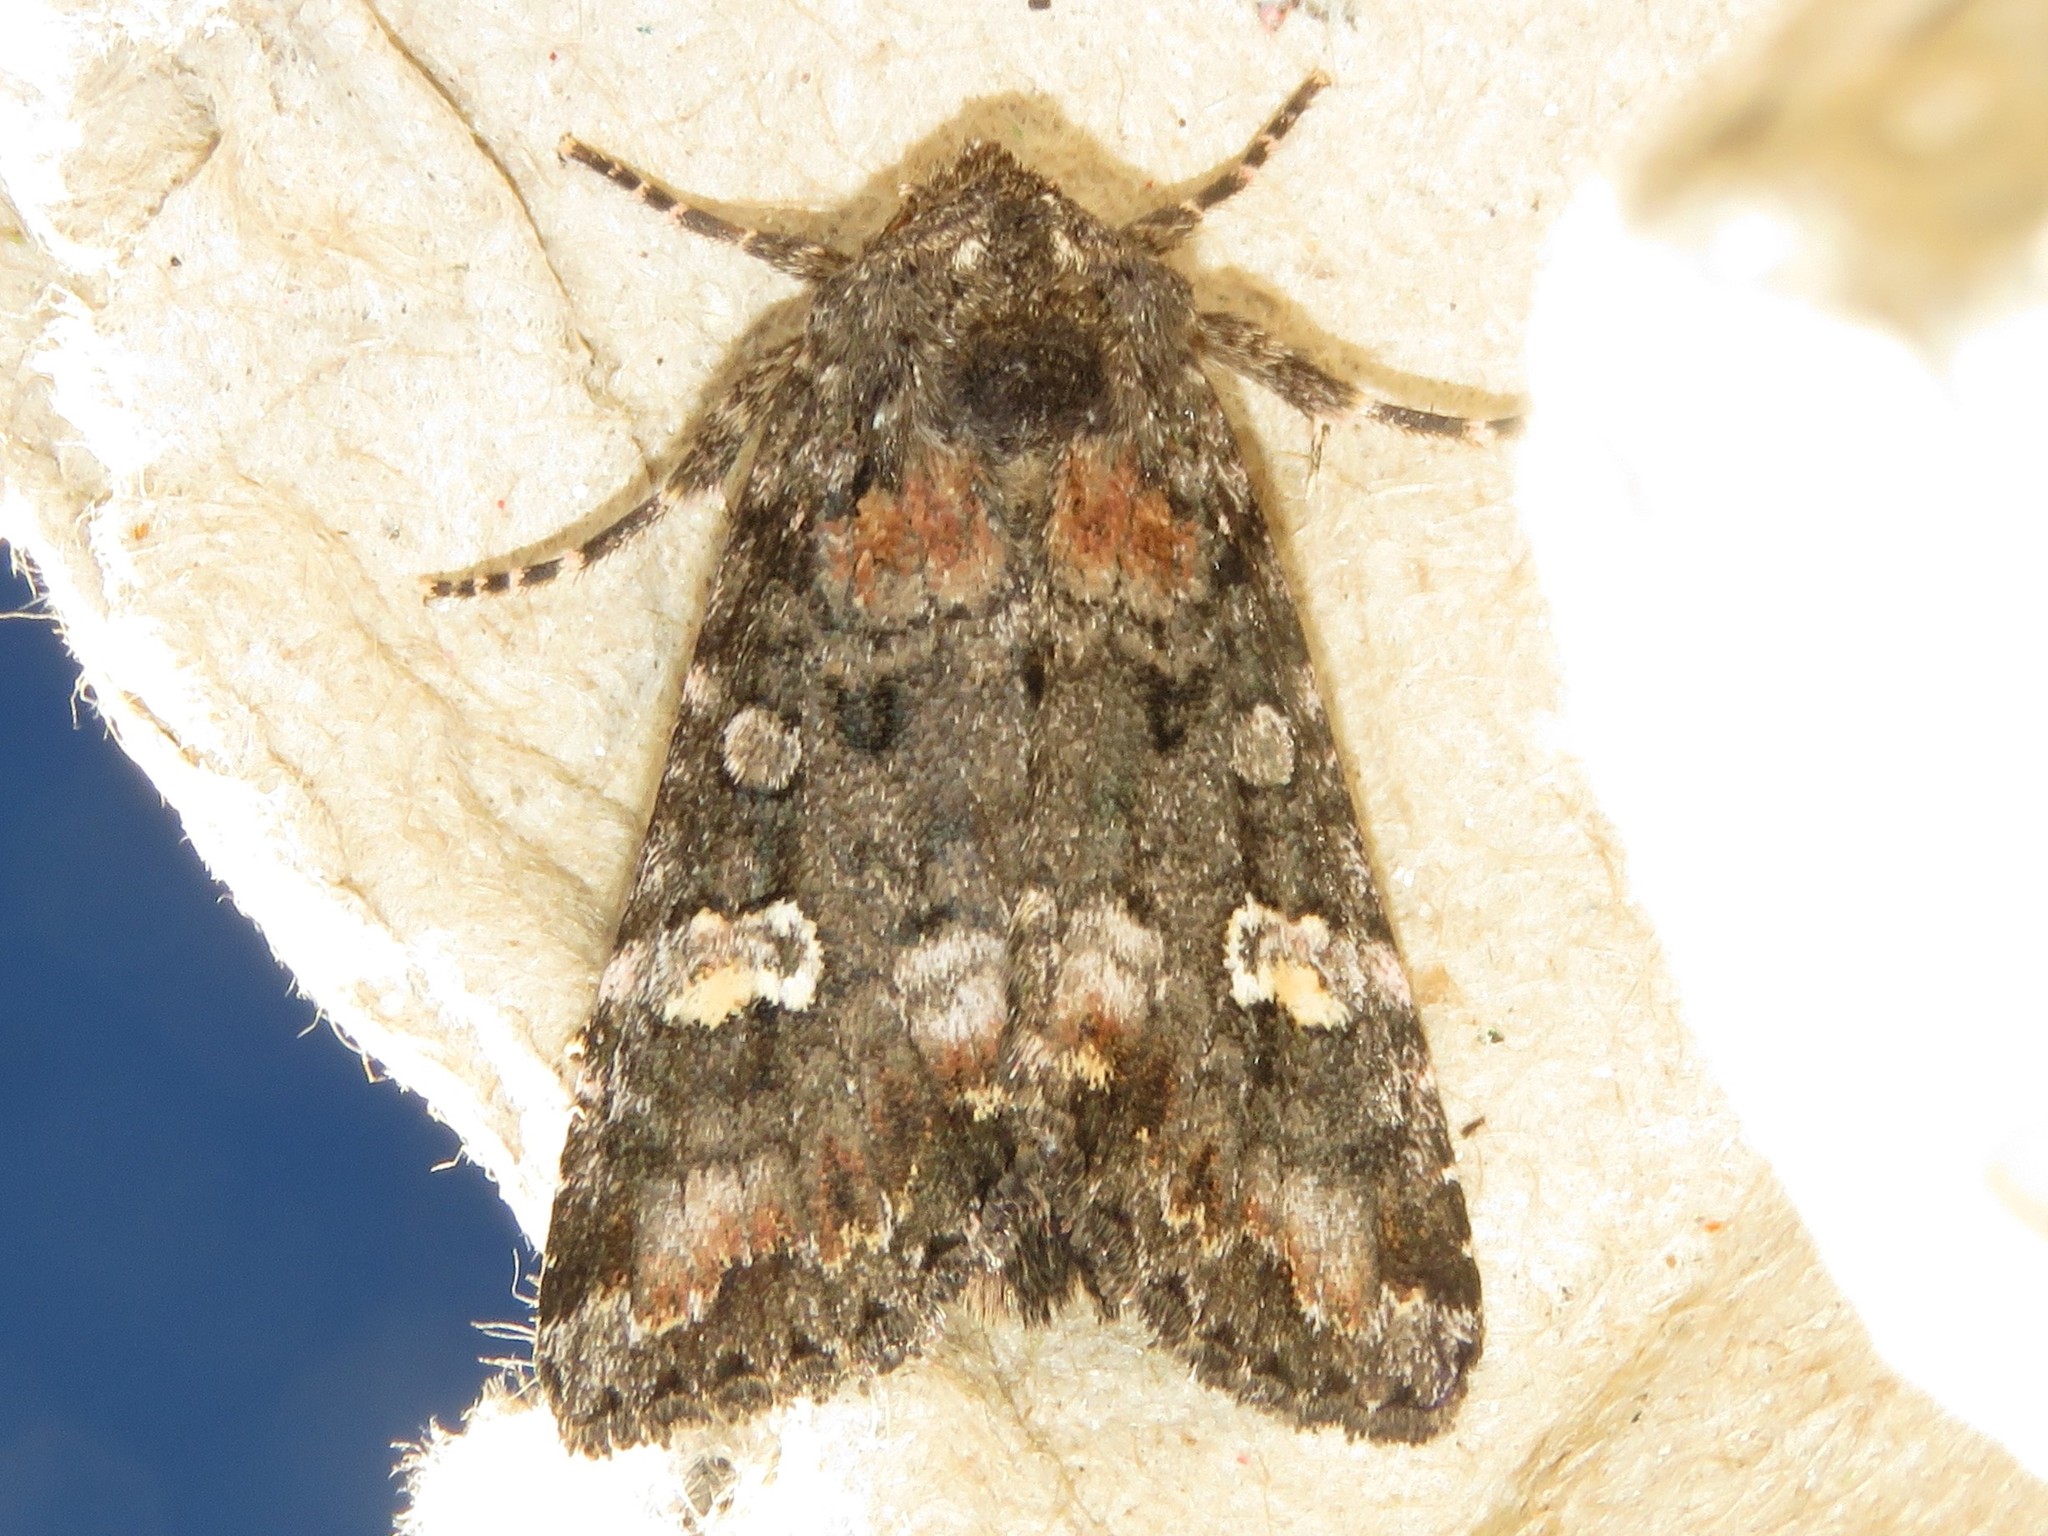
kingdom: Animalia
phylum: Arthropoda
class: Insecta
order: Lepidoptera
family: Noctuidae
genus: Spiramater
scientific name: Spiramater lutra
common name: Otter spiramater moth
